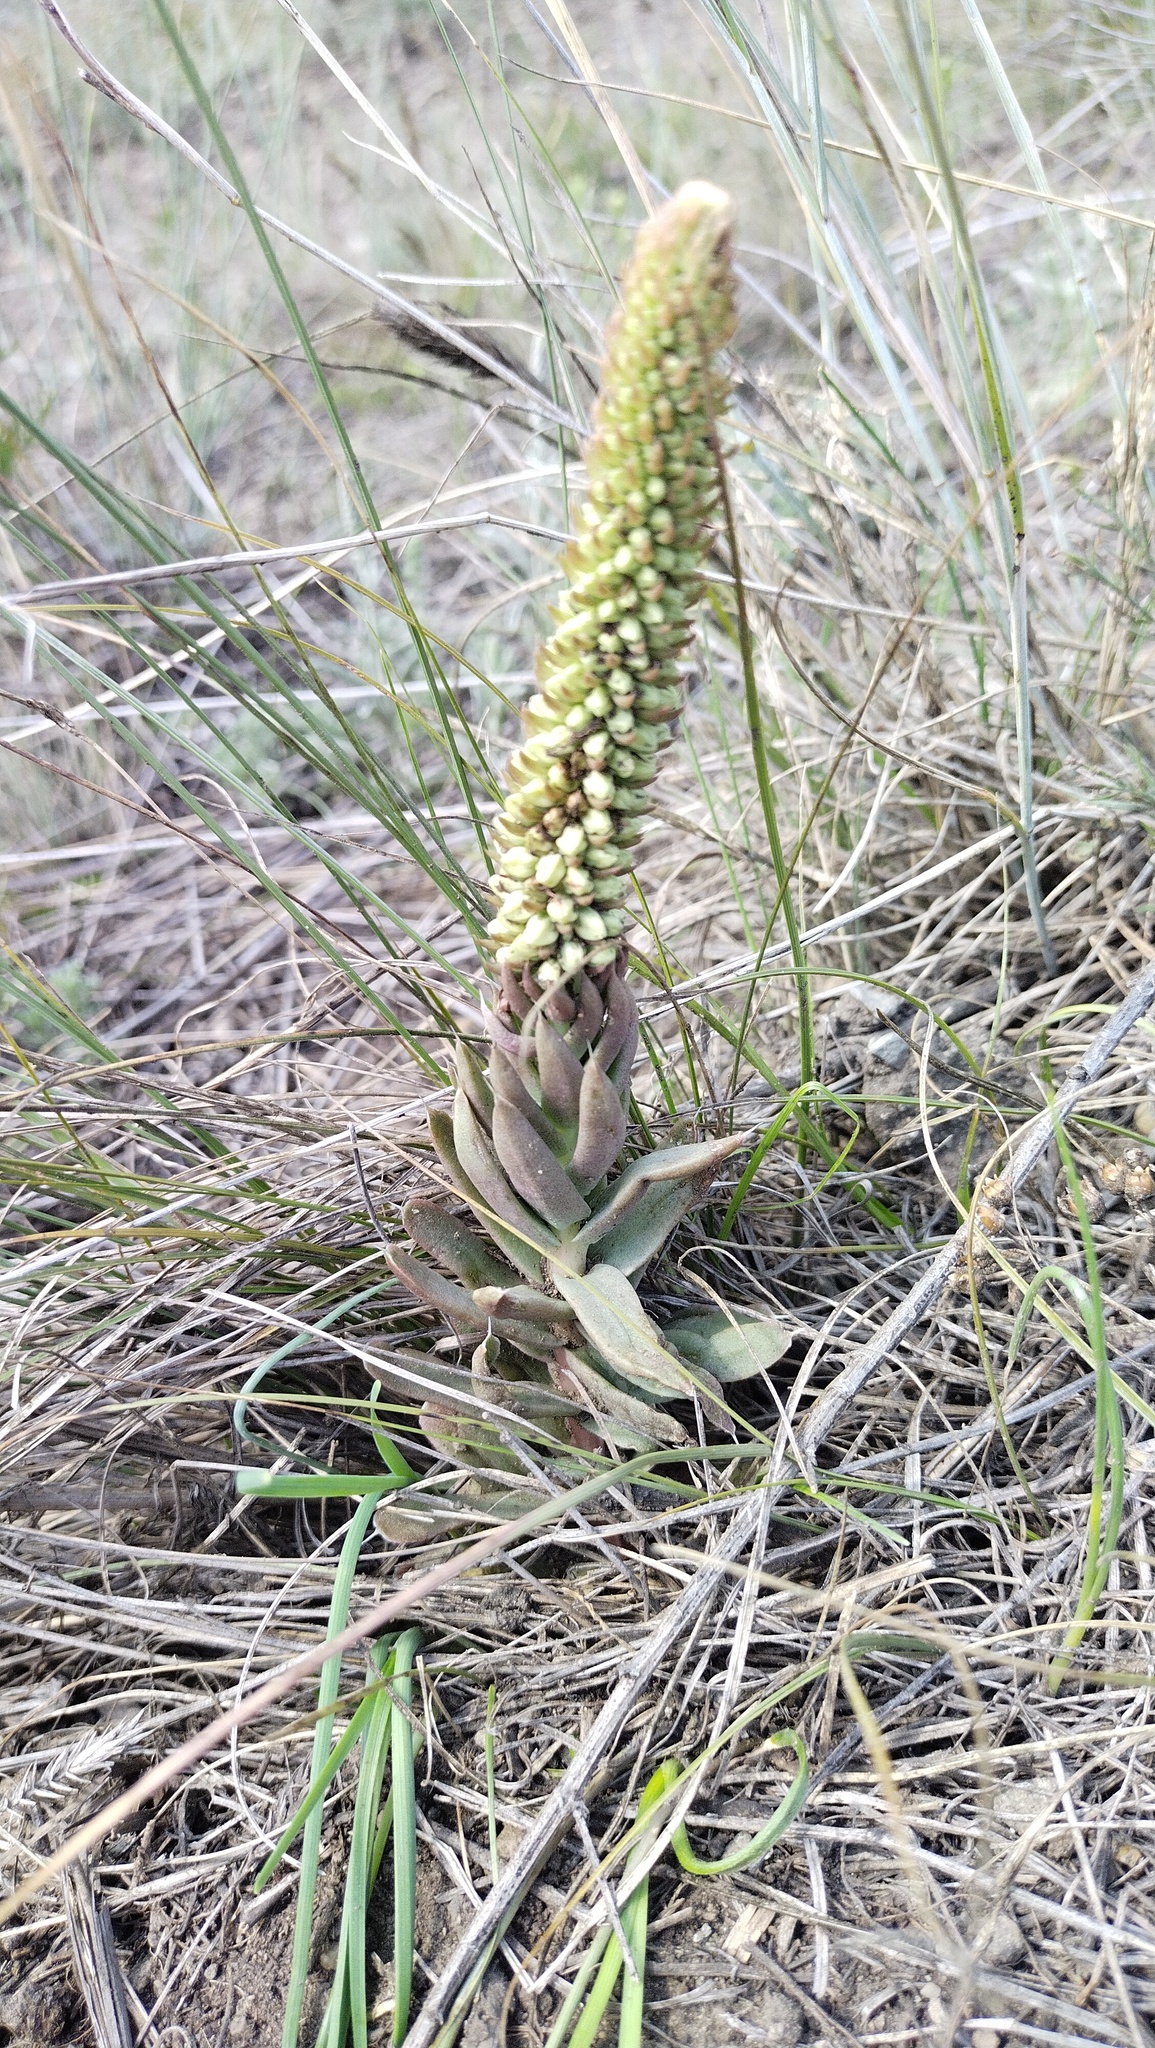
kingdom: Plantae
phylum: Tracheophyta
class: Magnoliopsida
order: Saxifragales
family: Crassulaceae
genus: Orostachys
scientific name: Orostachys spinosa
